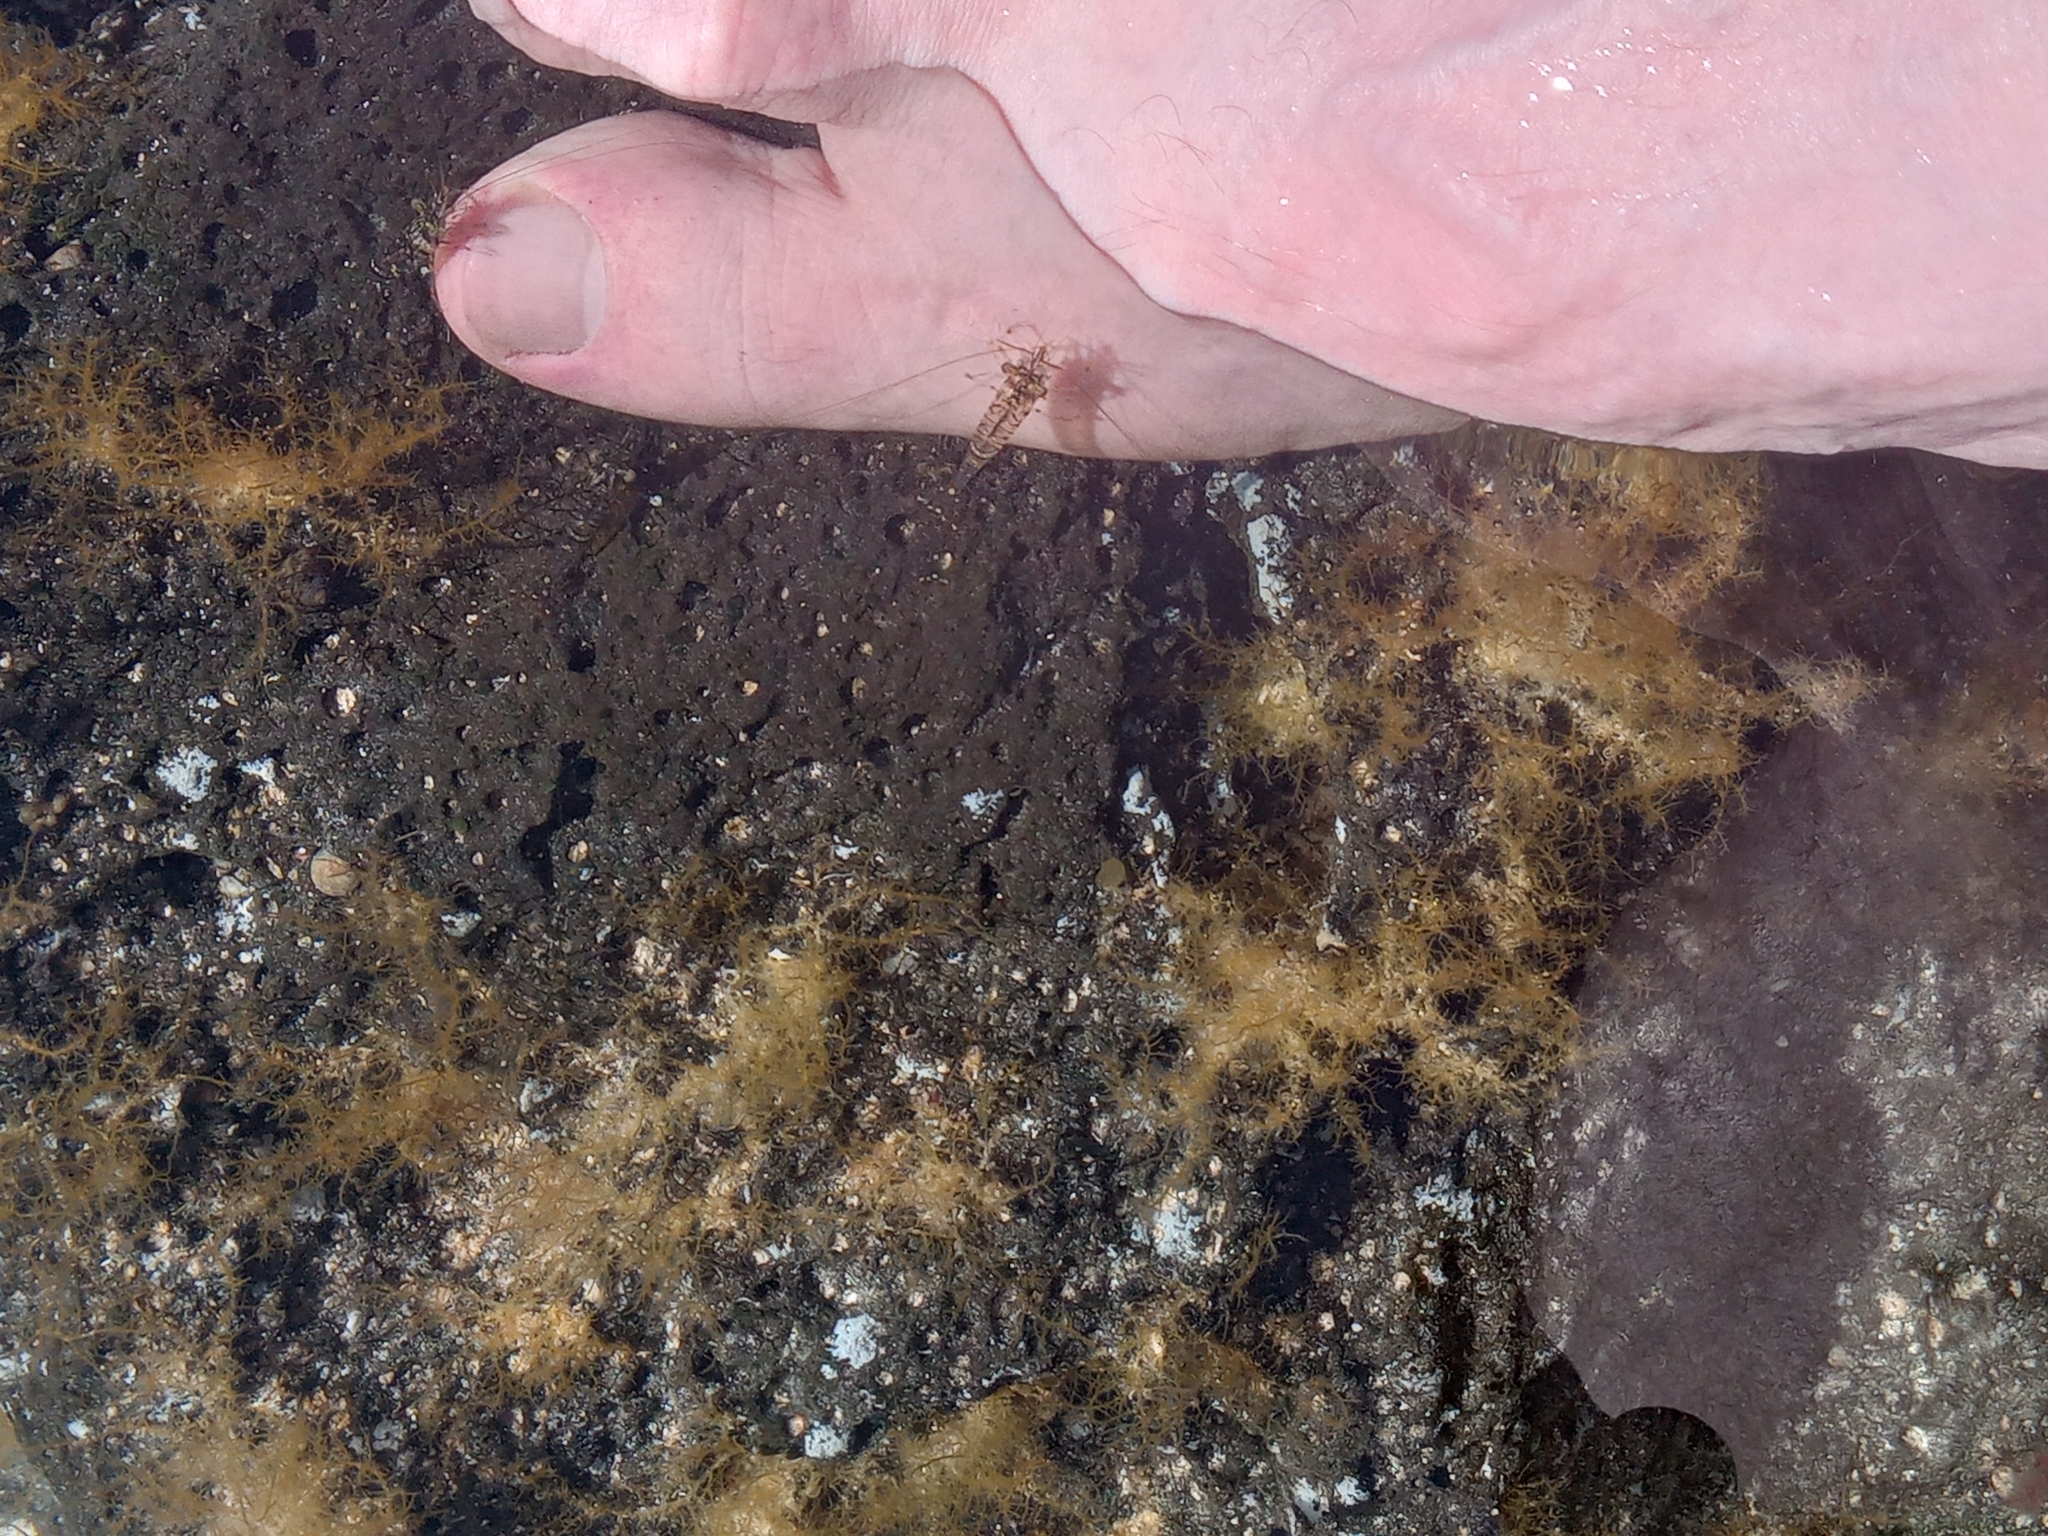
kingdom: Animalia
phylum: Arthropoda
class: Malacostraca
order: Decapoda
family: Palaemonidae
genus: Palaemon
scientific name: Palaemon elegans
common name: Grass prawm
